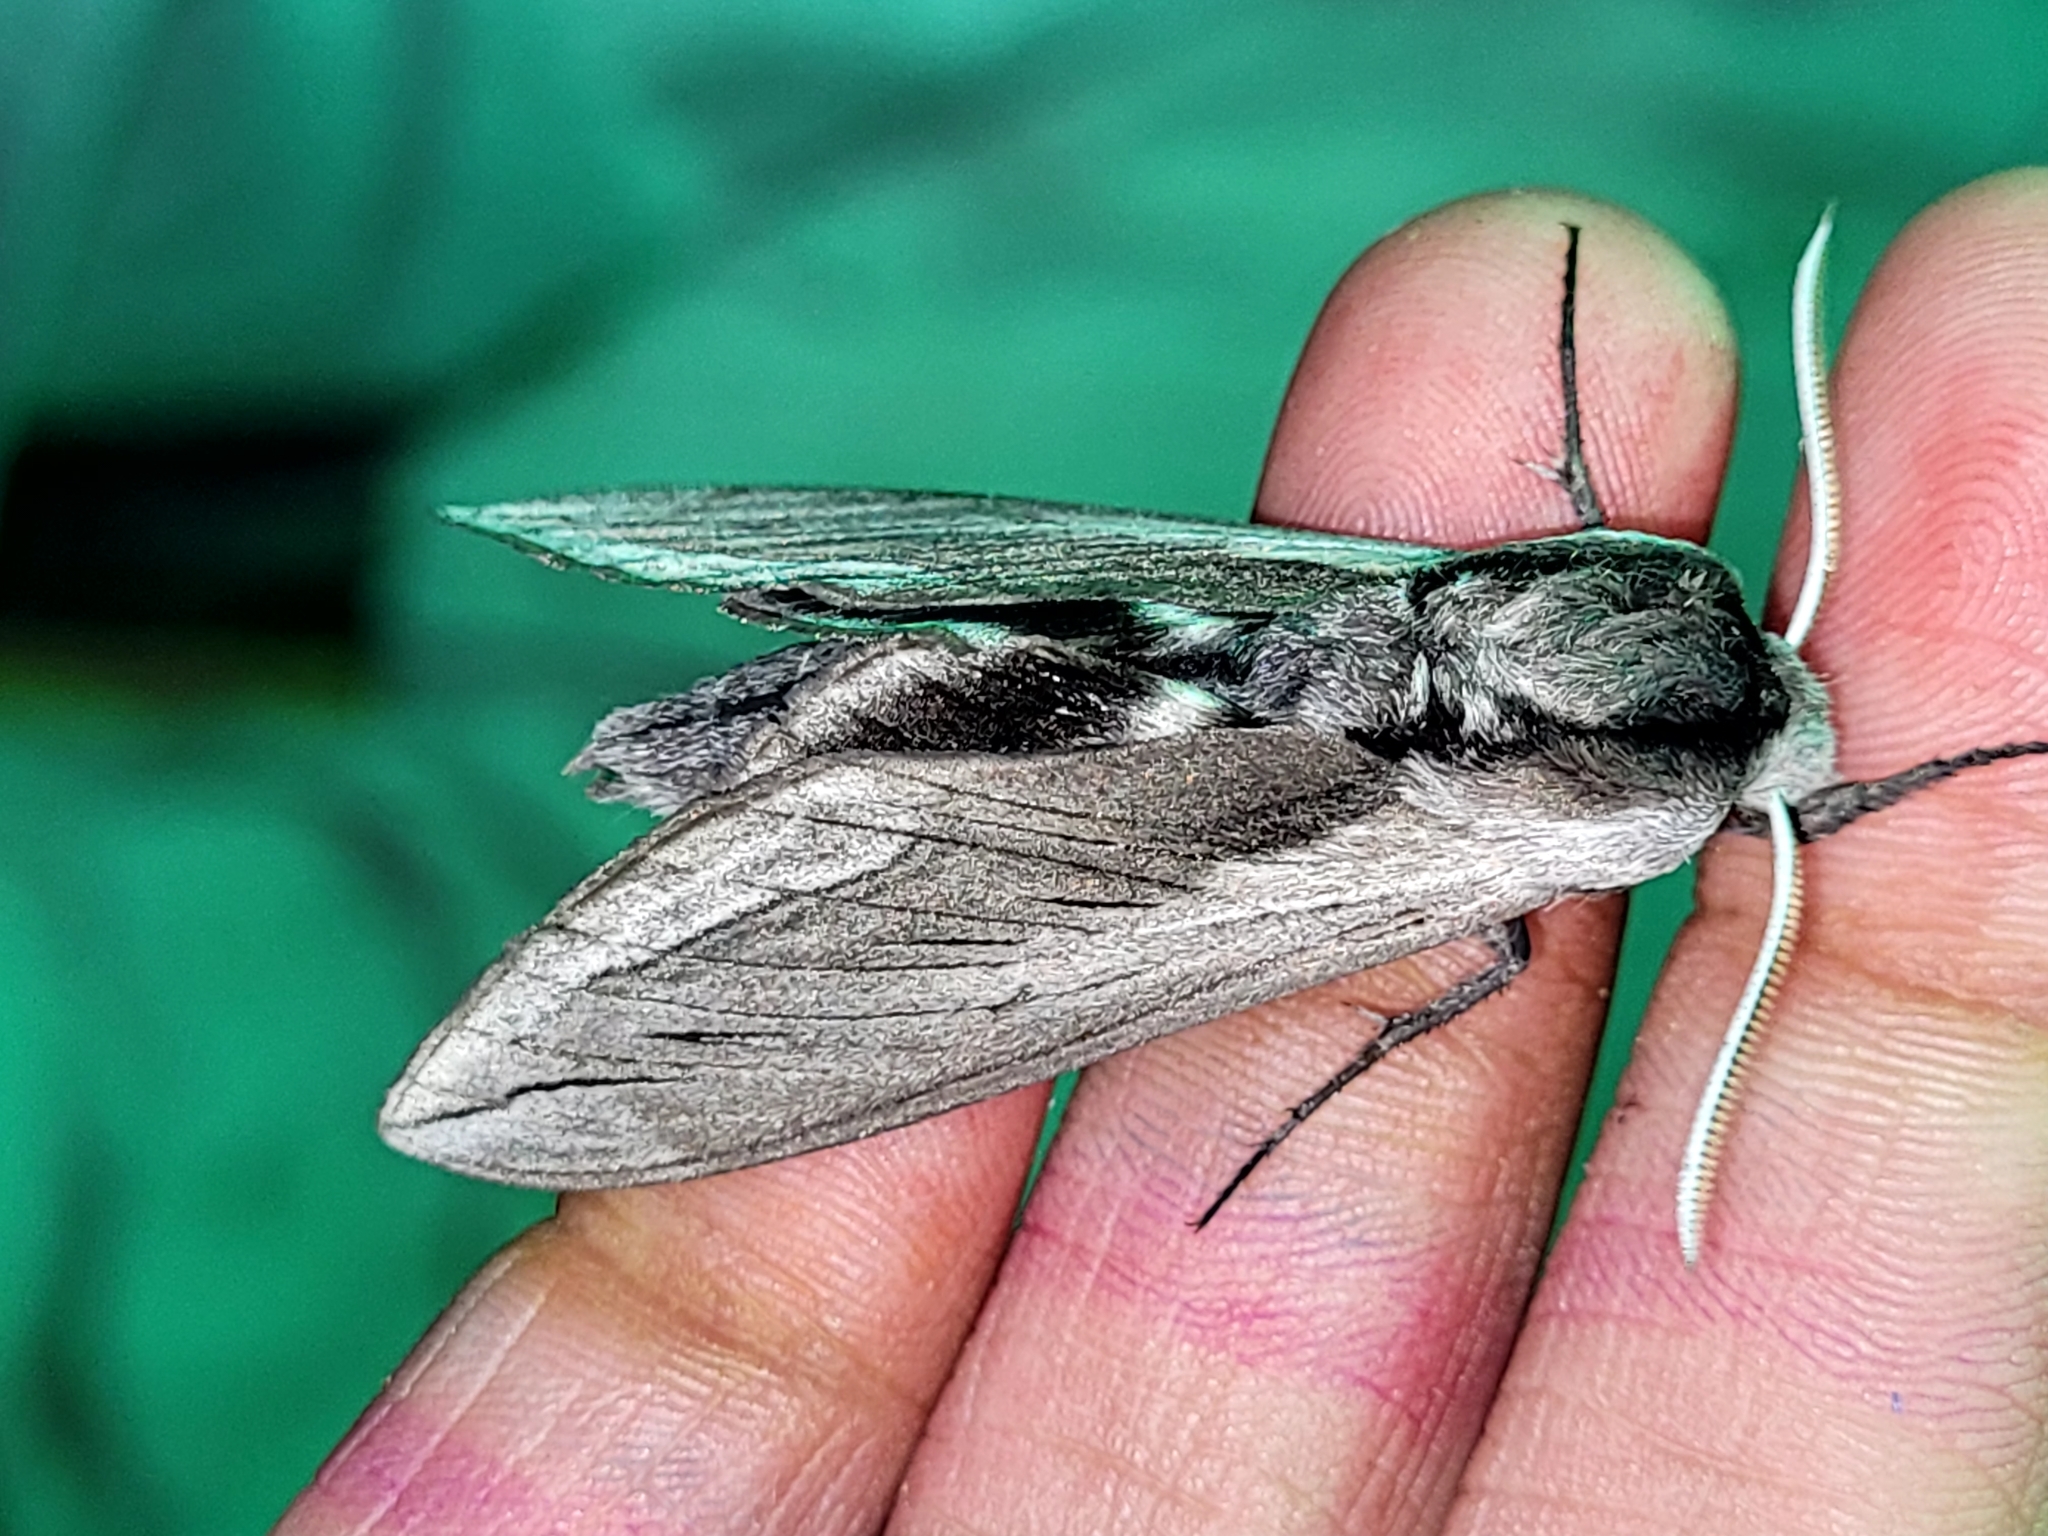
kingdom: Animalia
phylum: Arthropoda
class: Insecta
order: Lepidoptera
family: Sphingidae
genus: Sphinx
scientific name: Sphinx vashti
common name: Snowberry sphinx
